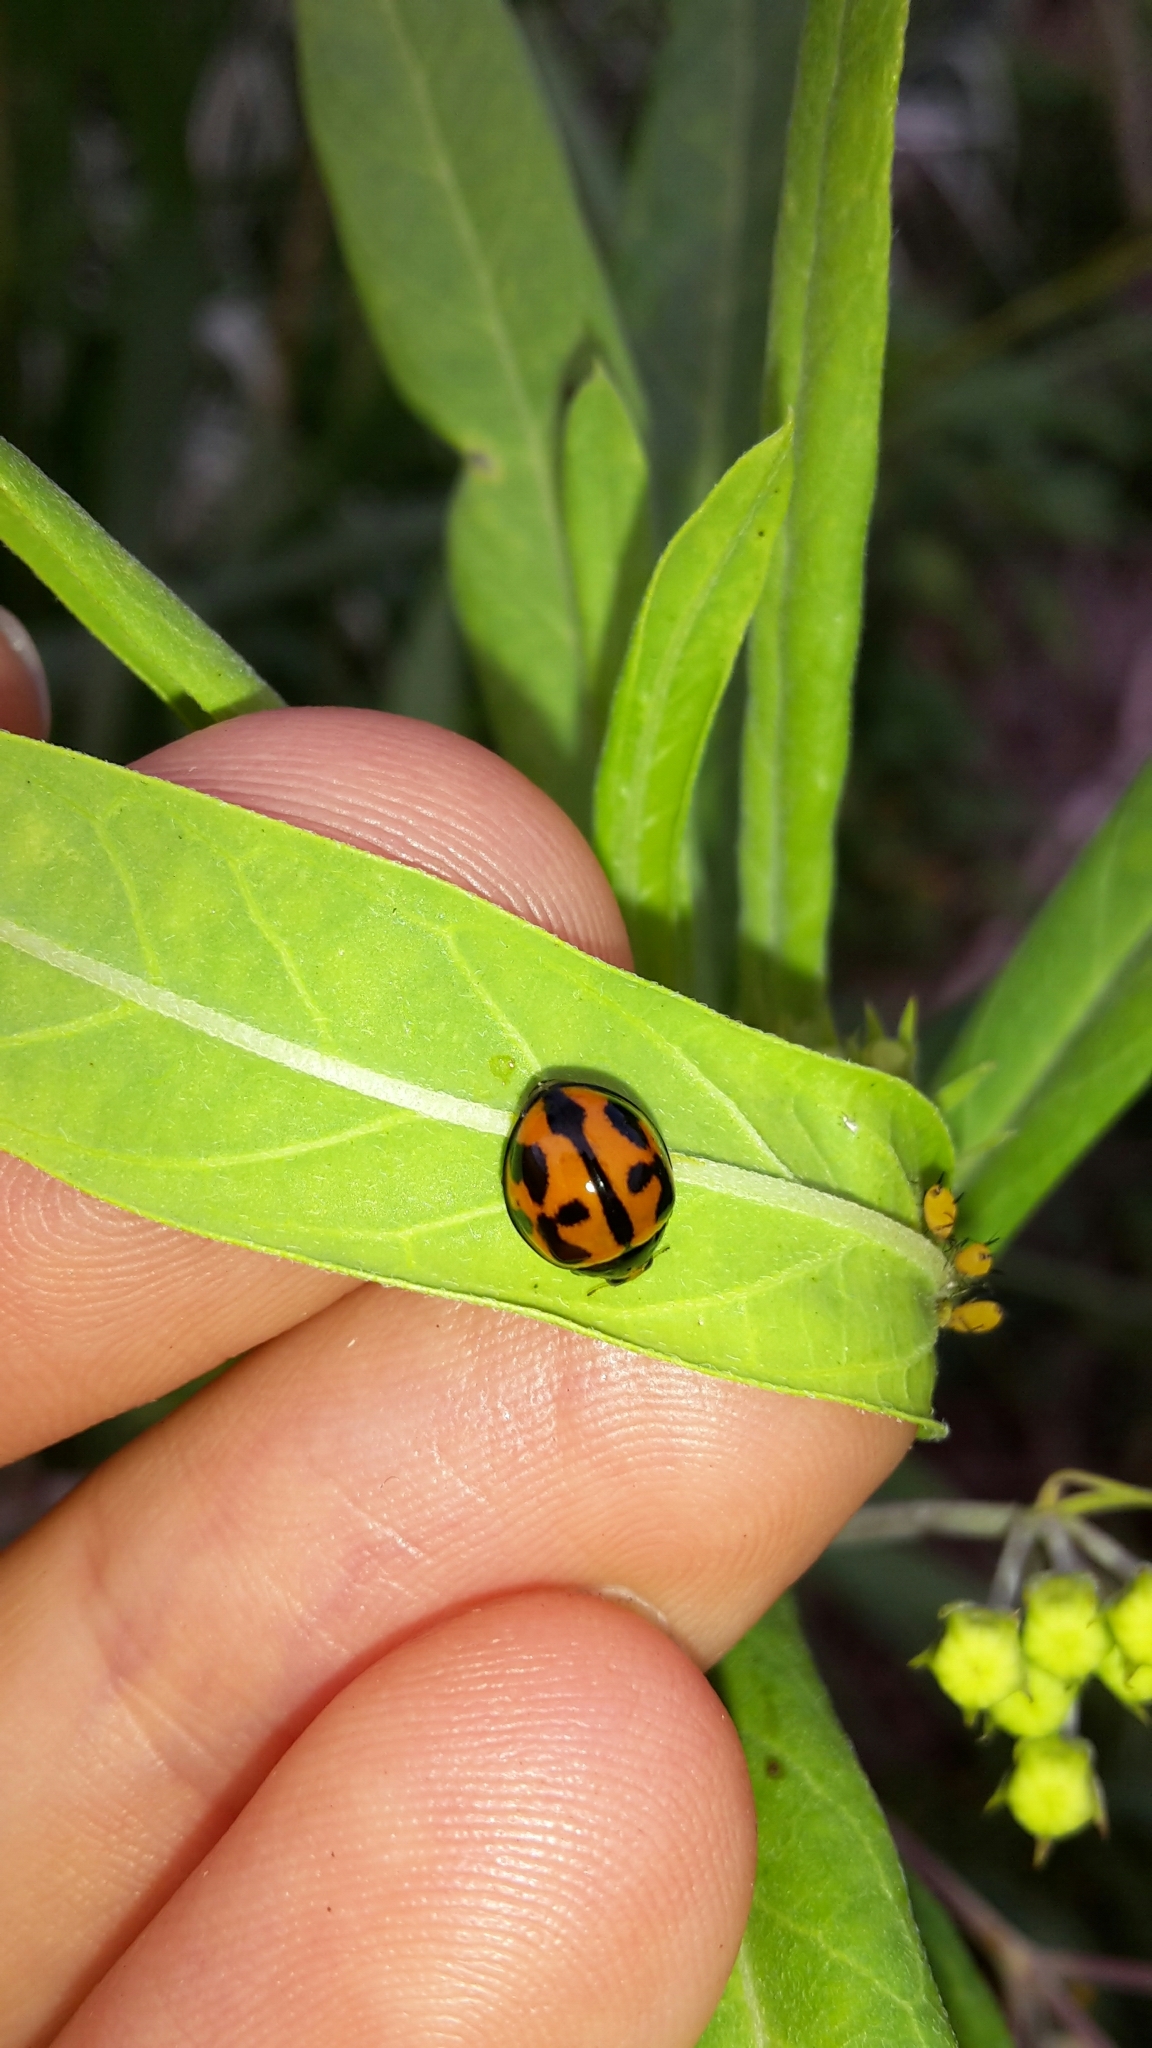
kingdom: Animalia
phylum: Arthropoda
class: Insecta
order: Coleoptera
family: Coccinellidae
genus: Coelophora
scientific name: Coelophora inaequalis
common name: Common australian lady beetle
